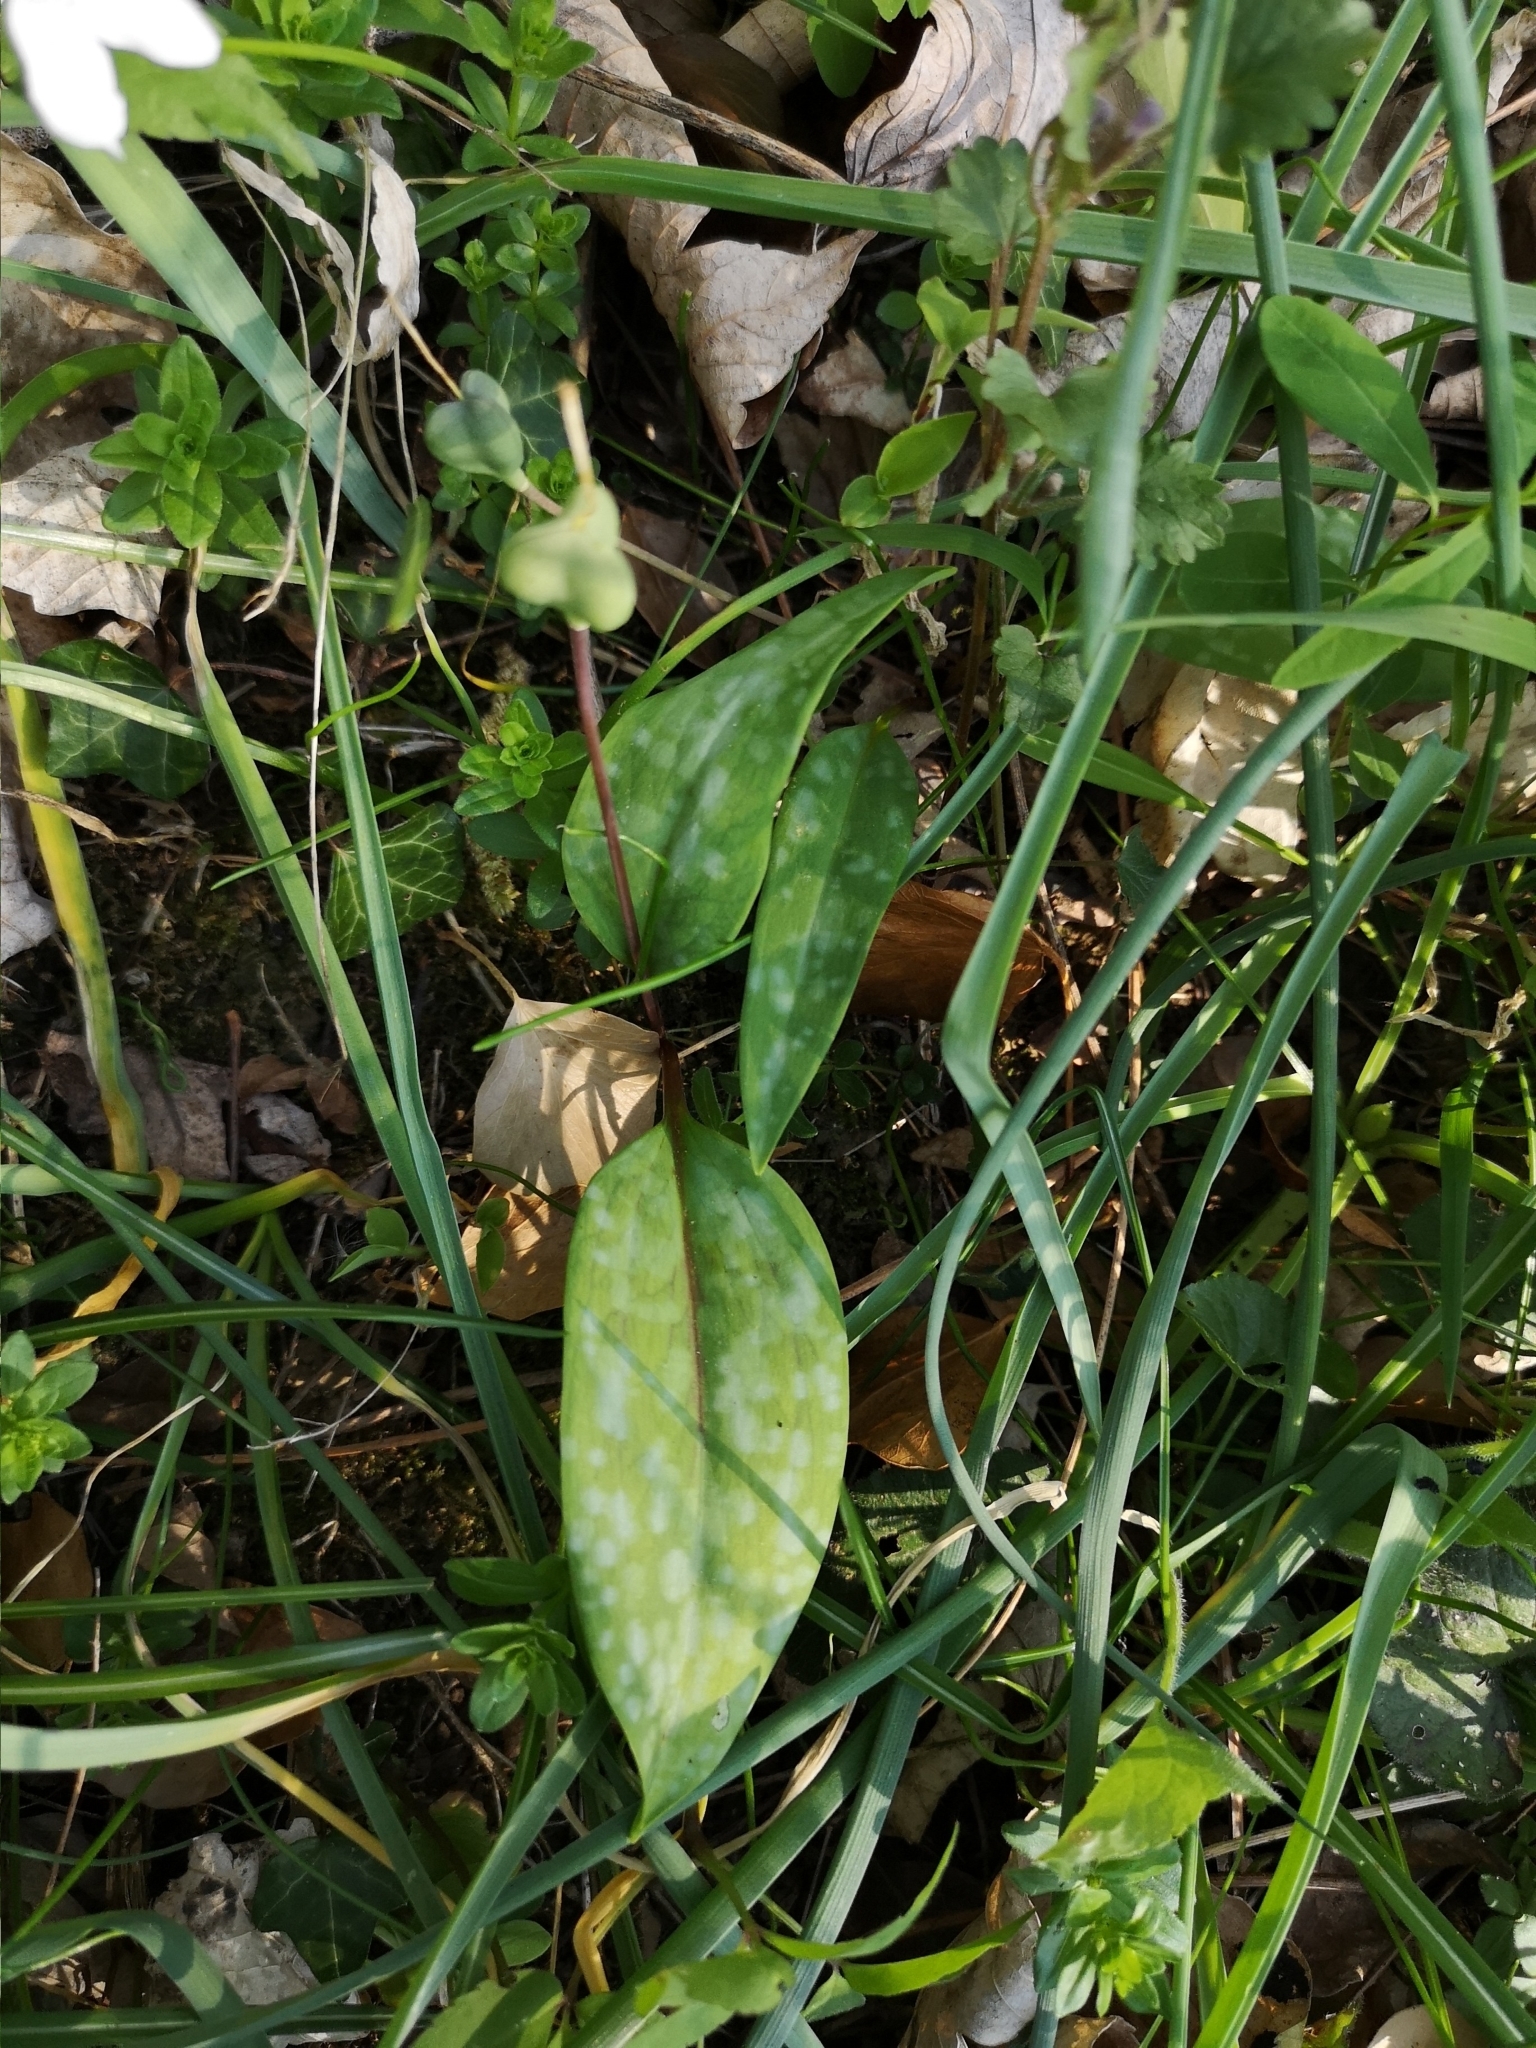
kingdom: Plantae
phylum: Tracheophyta
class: Liliopsida
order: Liliales
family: Liliaceae
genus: Erythronium
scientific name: Erythronium dens-canis
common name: Dog's-tooth-violet
